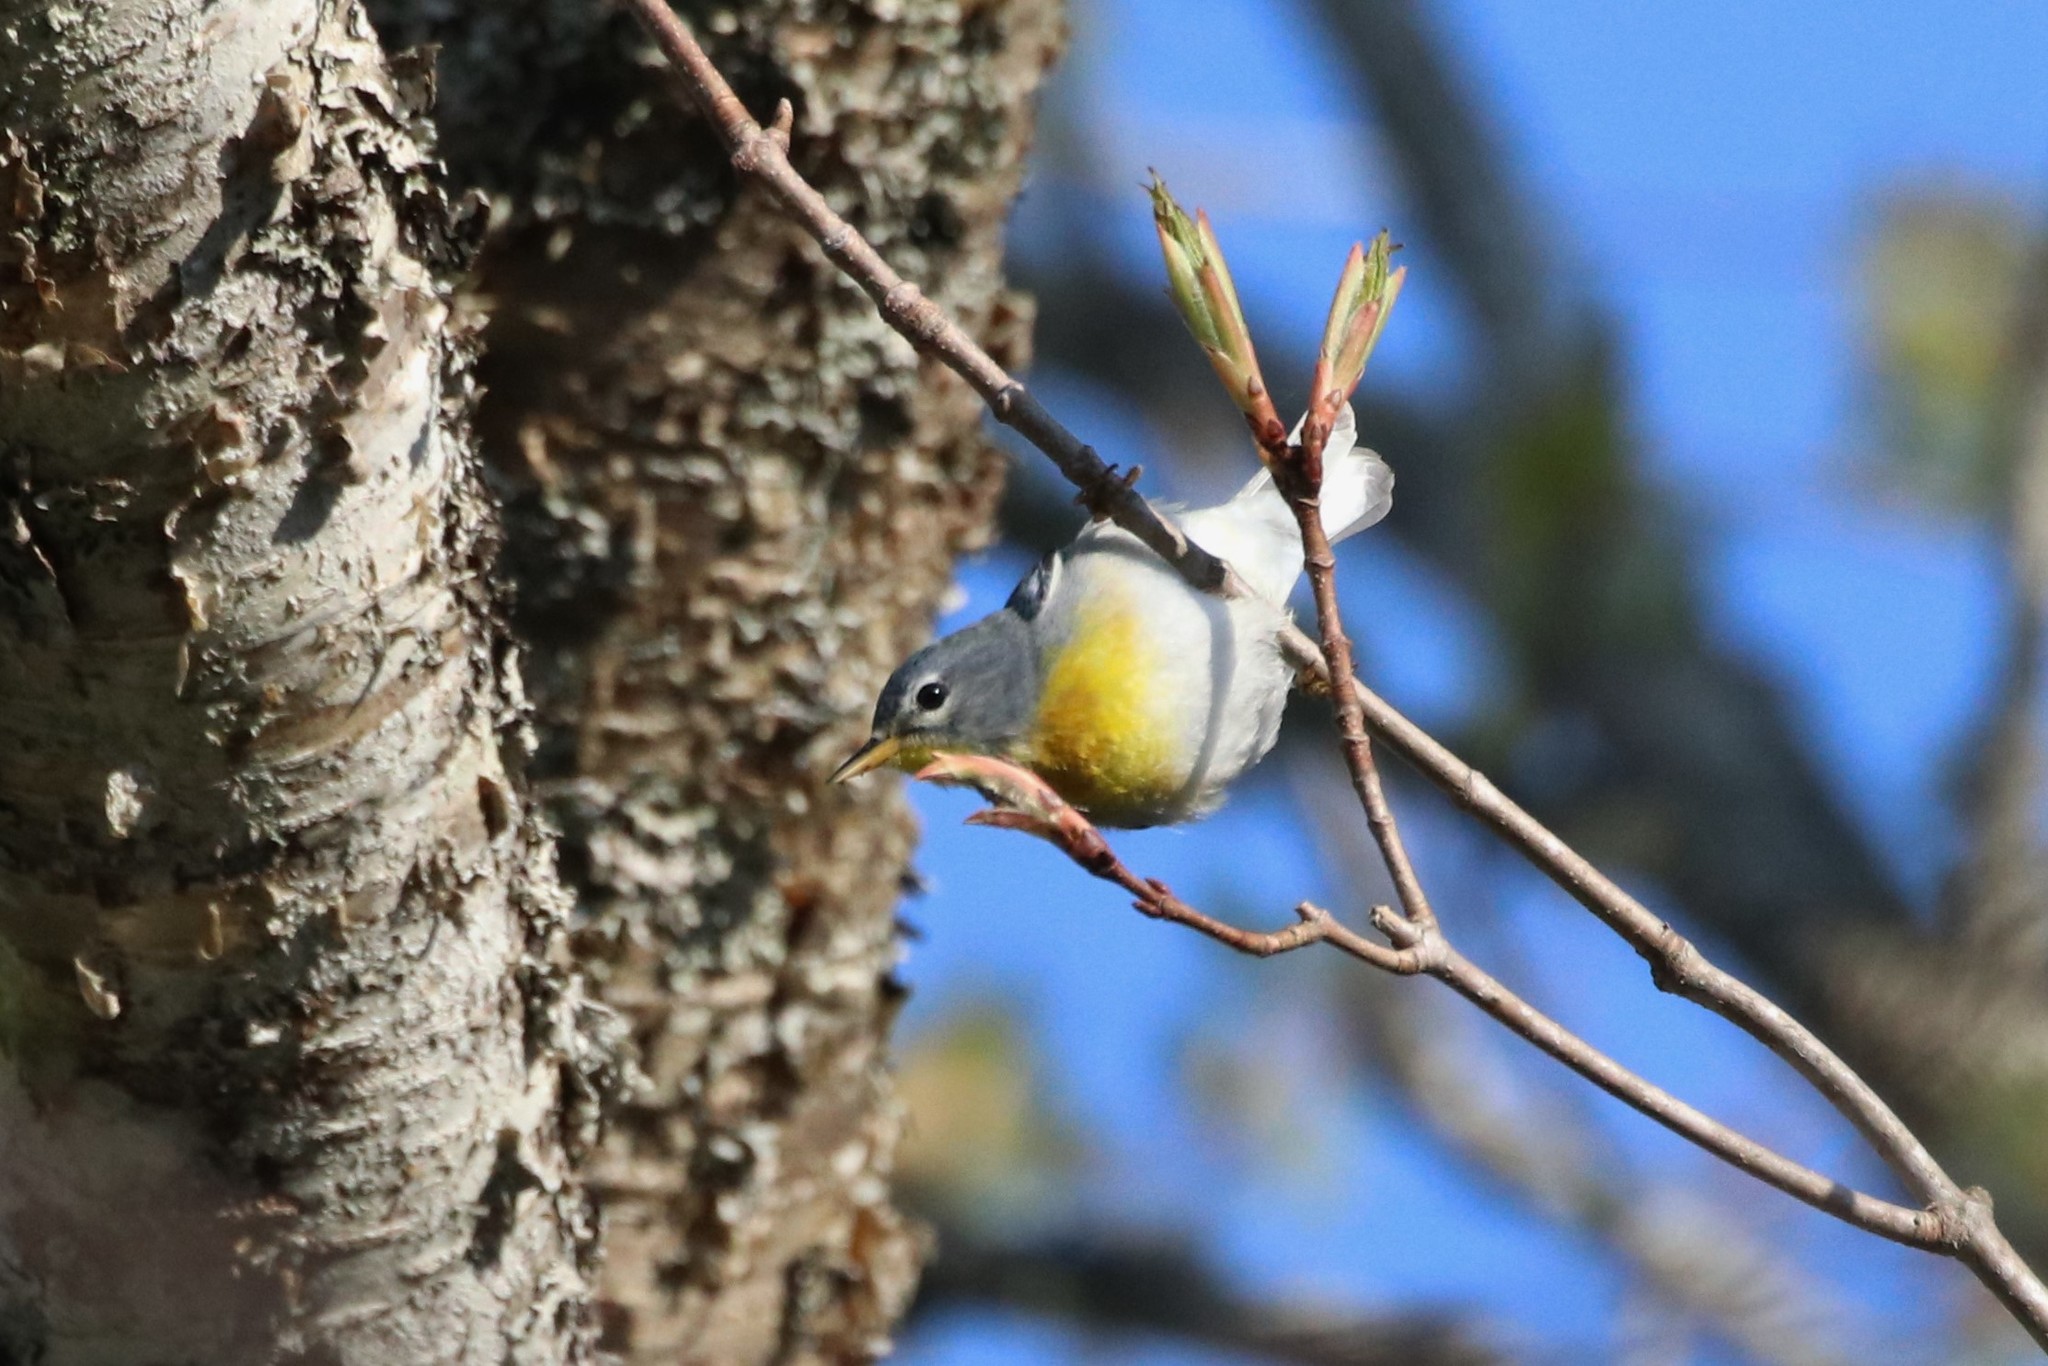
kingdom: Animalia
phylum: Chordata
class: Aves
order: Passeriformes
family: Parulidae
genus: Setophaga
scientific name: Setophaga americana
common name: Northern parula
